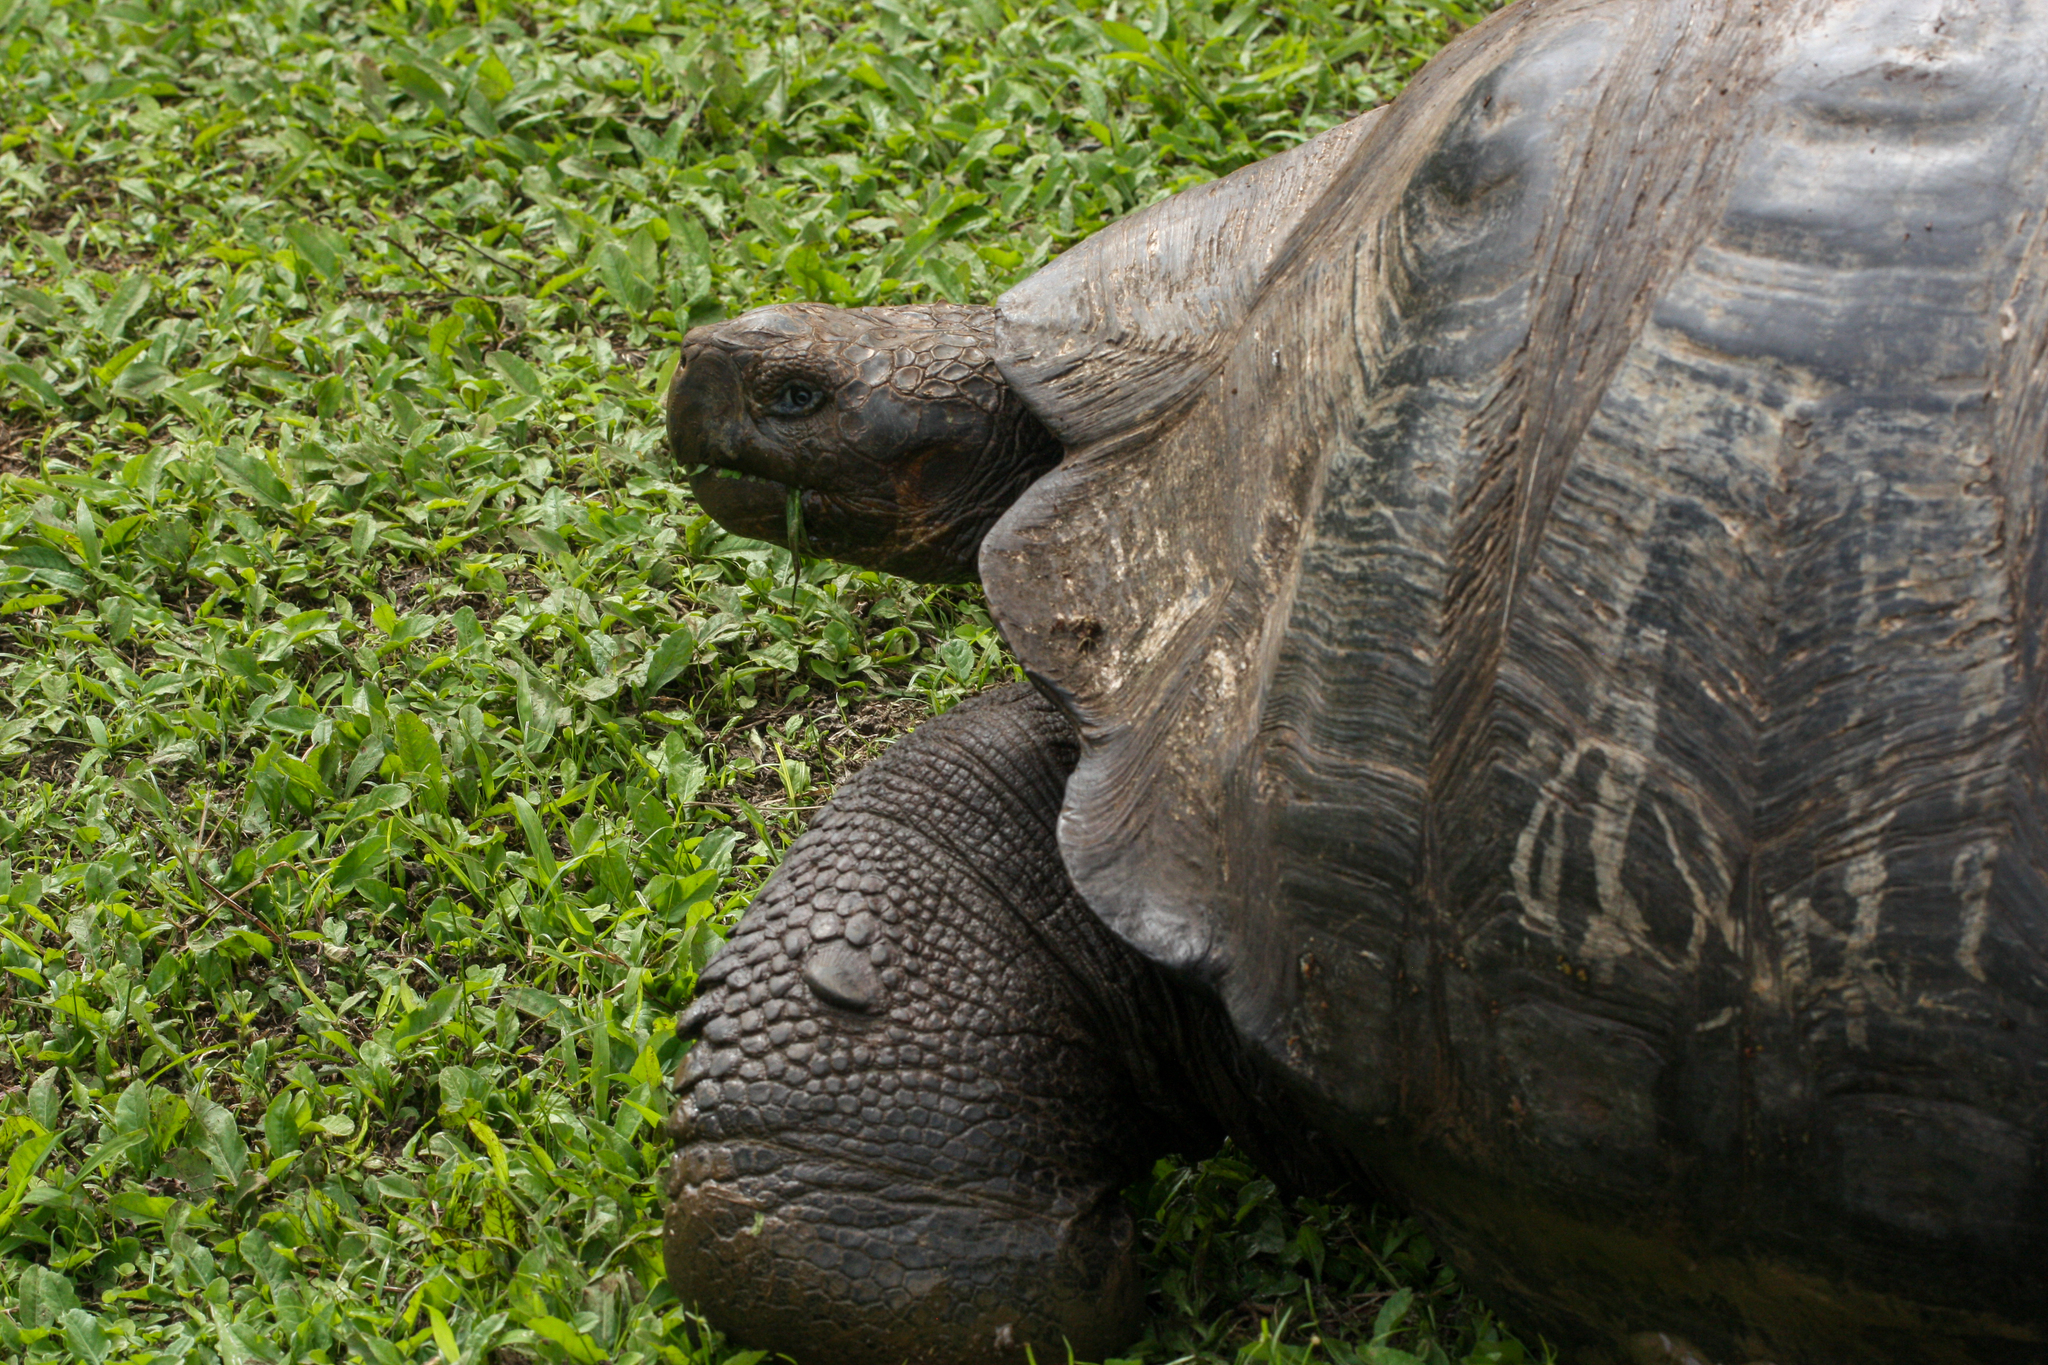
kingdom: Animalia
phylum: Chordata
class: Testudines
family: Testudinidae
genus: Chelonoidis
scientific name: Chelonoidis porteri
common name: Indefatigable island giant tortoise
